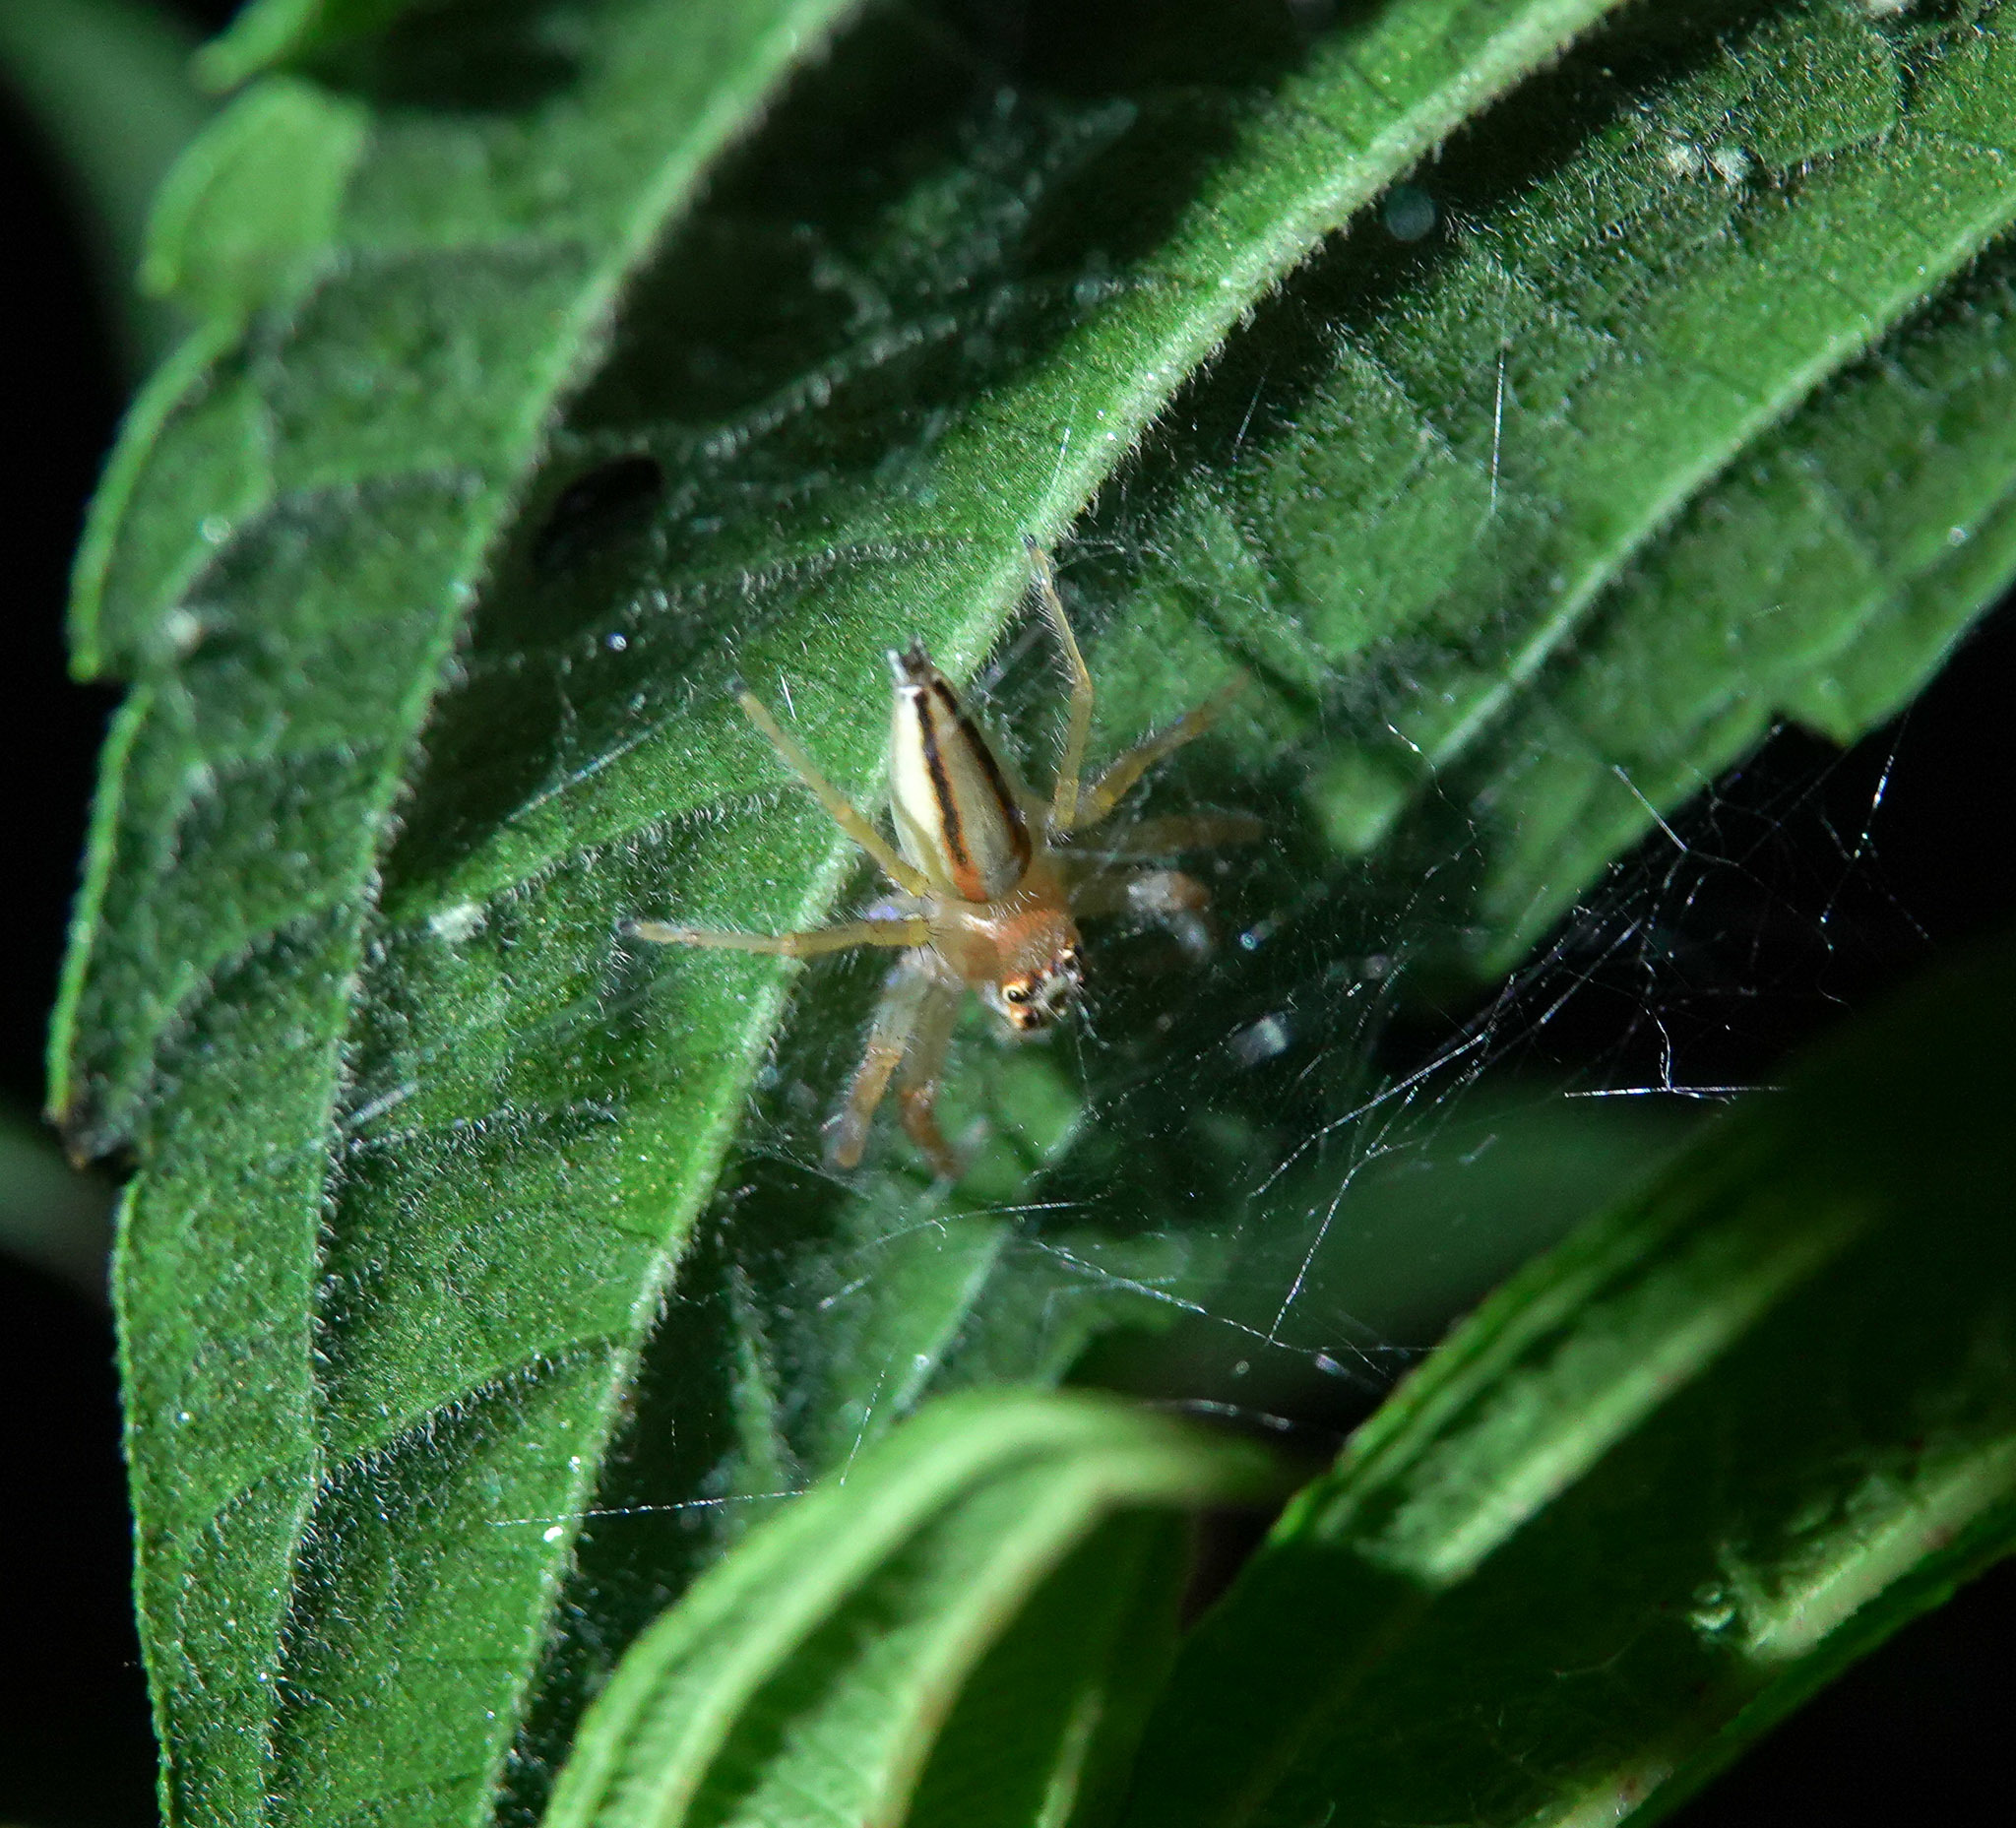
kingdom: Animalia
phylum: Arthropoda
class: Arachnida
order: Araneae
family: Salticidae
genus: Telamonia
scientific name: Telamonia dimidiata
